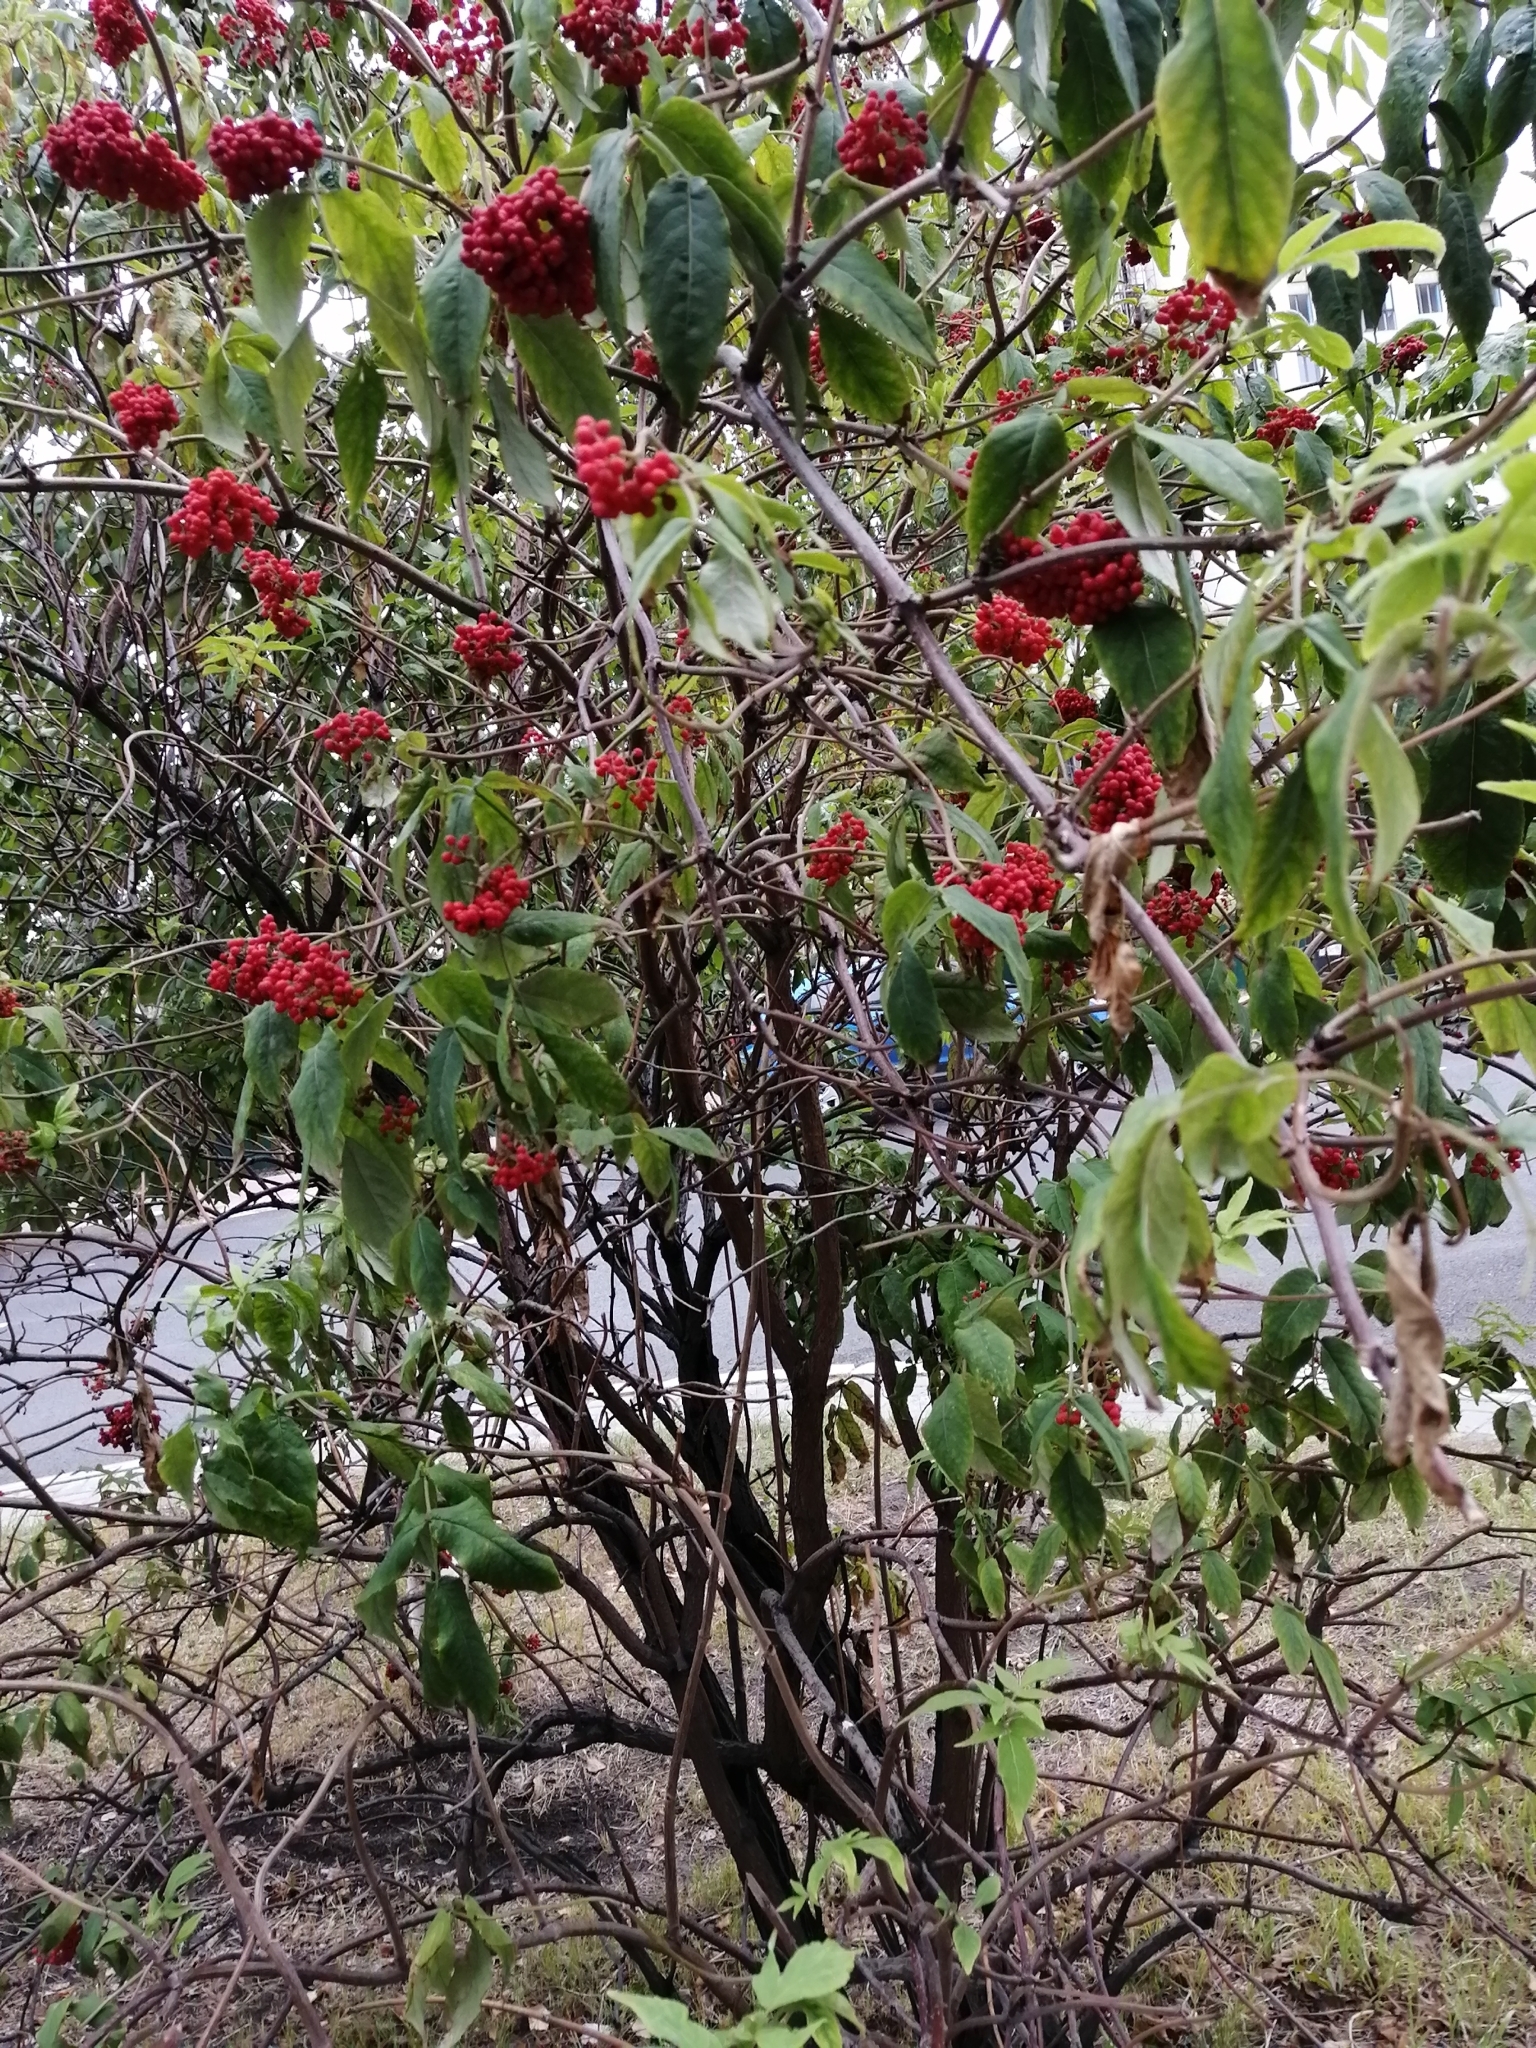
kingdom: Plantae
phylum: Tracheophyta
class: Magnoliopsida
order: Dipsacales
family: Viburnaceae
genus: Sambucus
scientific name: Sambucus sibirica
